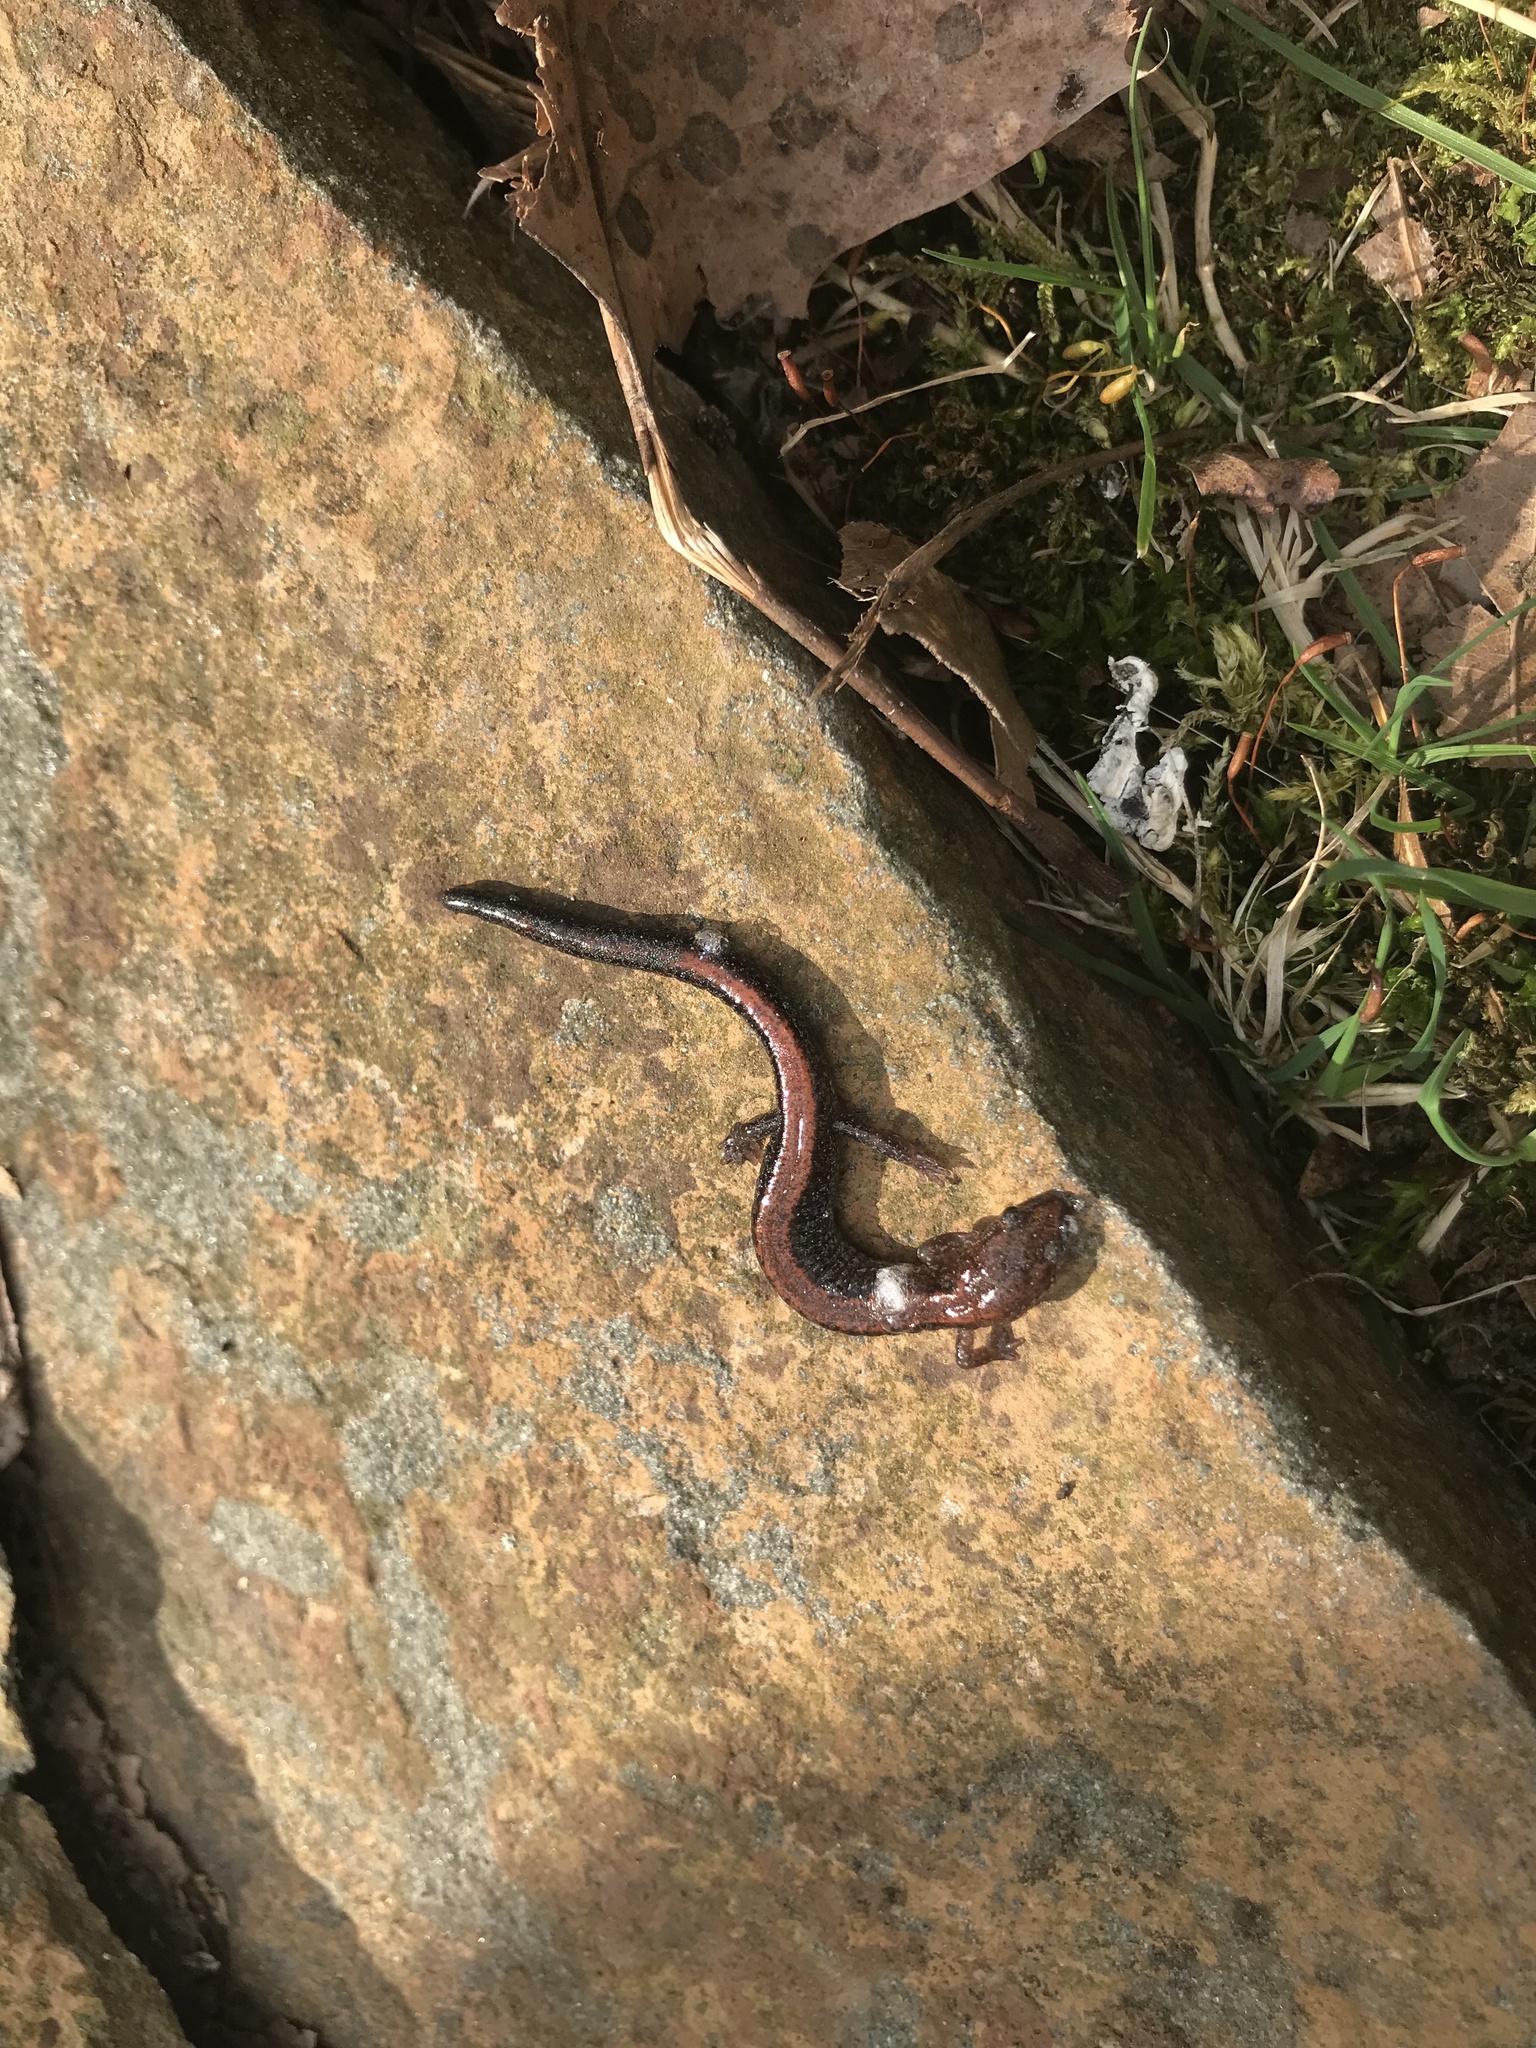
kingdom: Animalia
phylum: Chordata
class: Amphibia
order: Caudata
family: Plethodontidae
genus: Plethodon
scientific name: Plethodon cinereus
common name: Redback salamander
